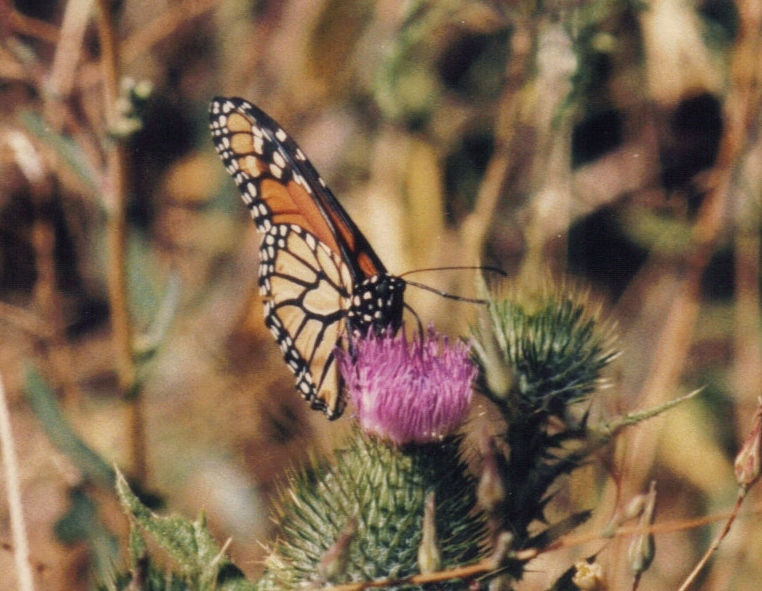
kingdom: Animalia
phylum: Arthropoda
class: Insecta
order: Lepidoptera
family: Nymphalidae
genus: Danaus
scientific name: Danaus plexippus
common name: Monarch
